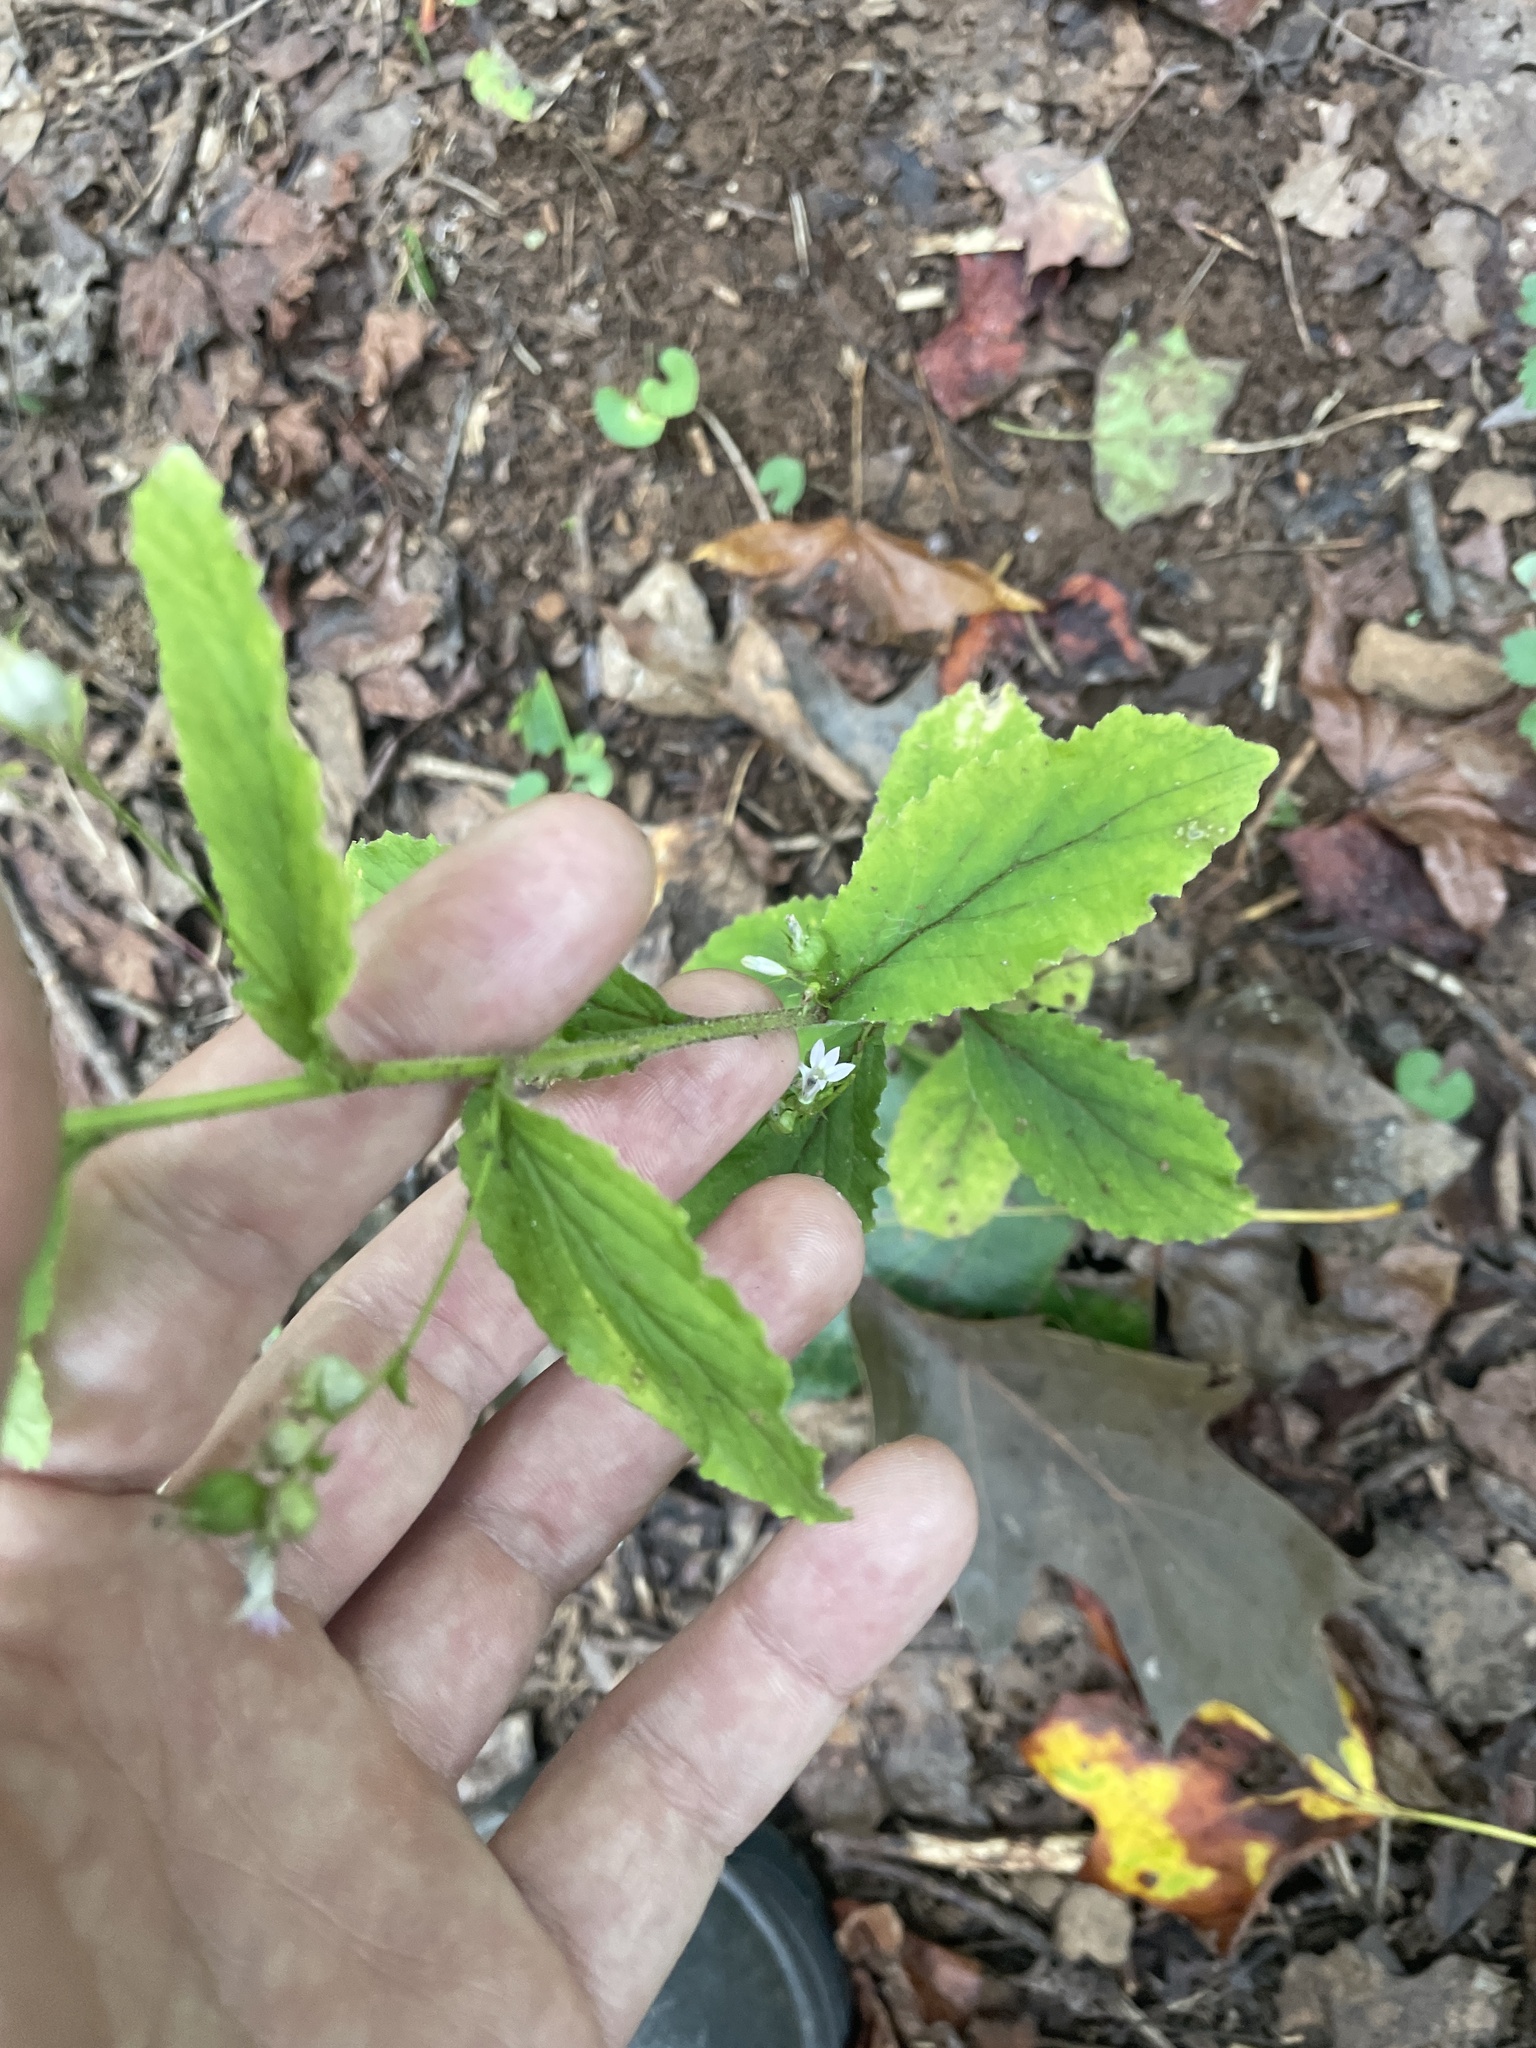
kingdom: Plantae
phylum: Tracheophyta
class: Magnoliopsida
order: Asterales
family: Campanulaceae
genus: Lobelia
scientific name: Lobelia inflata
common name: Indian tobacco
